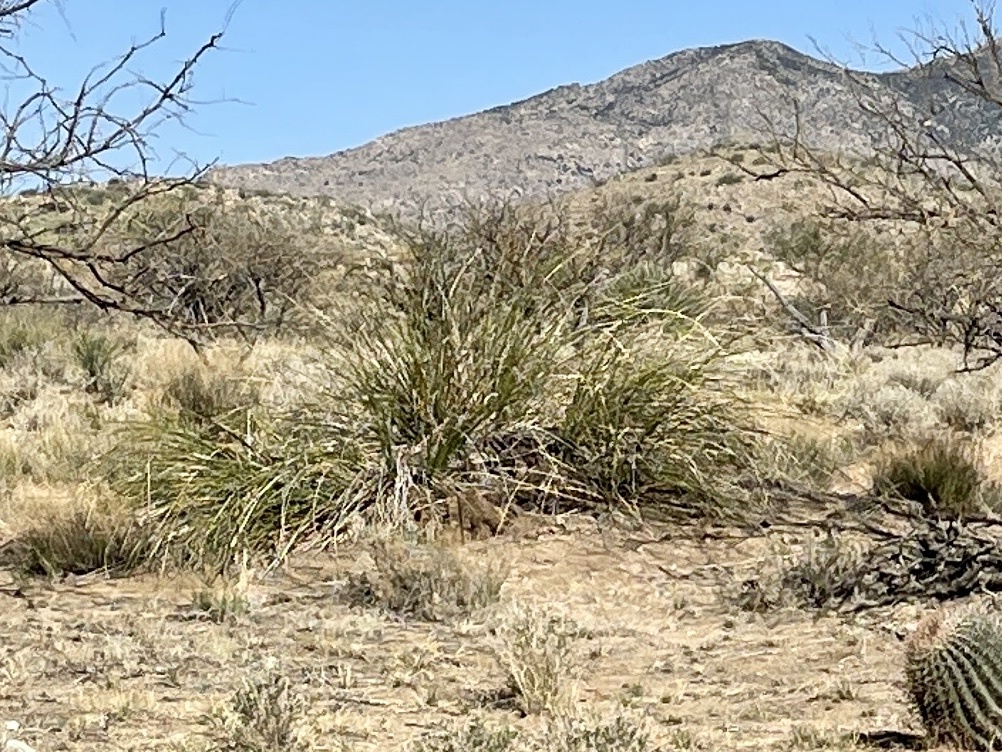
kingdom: Plantae
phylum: Tracheophyta
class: Liliopsida
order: Asparagales
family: Asparagaceae
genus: Nolina
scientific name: Nolina microcarpa
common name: Bear-grass
